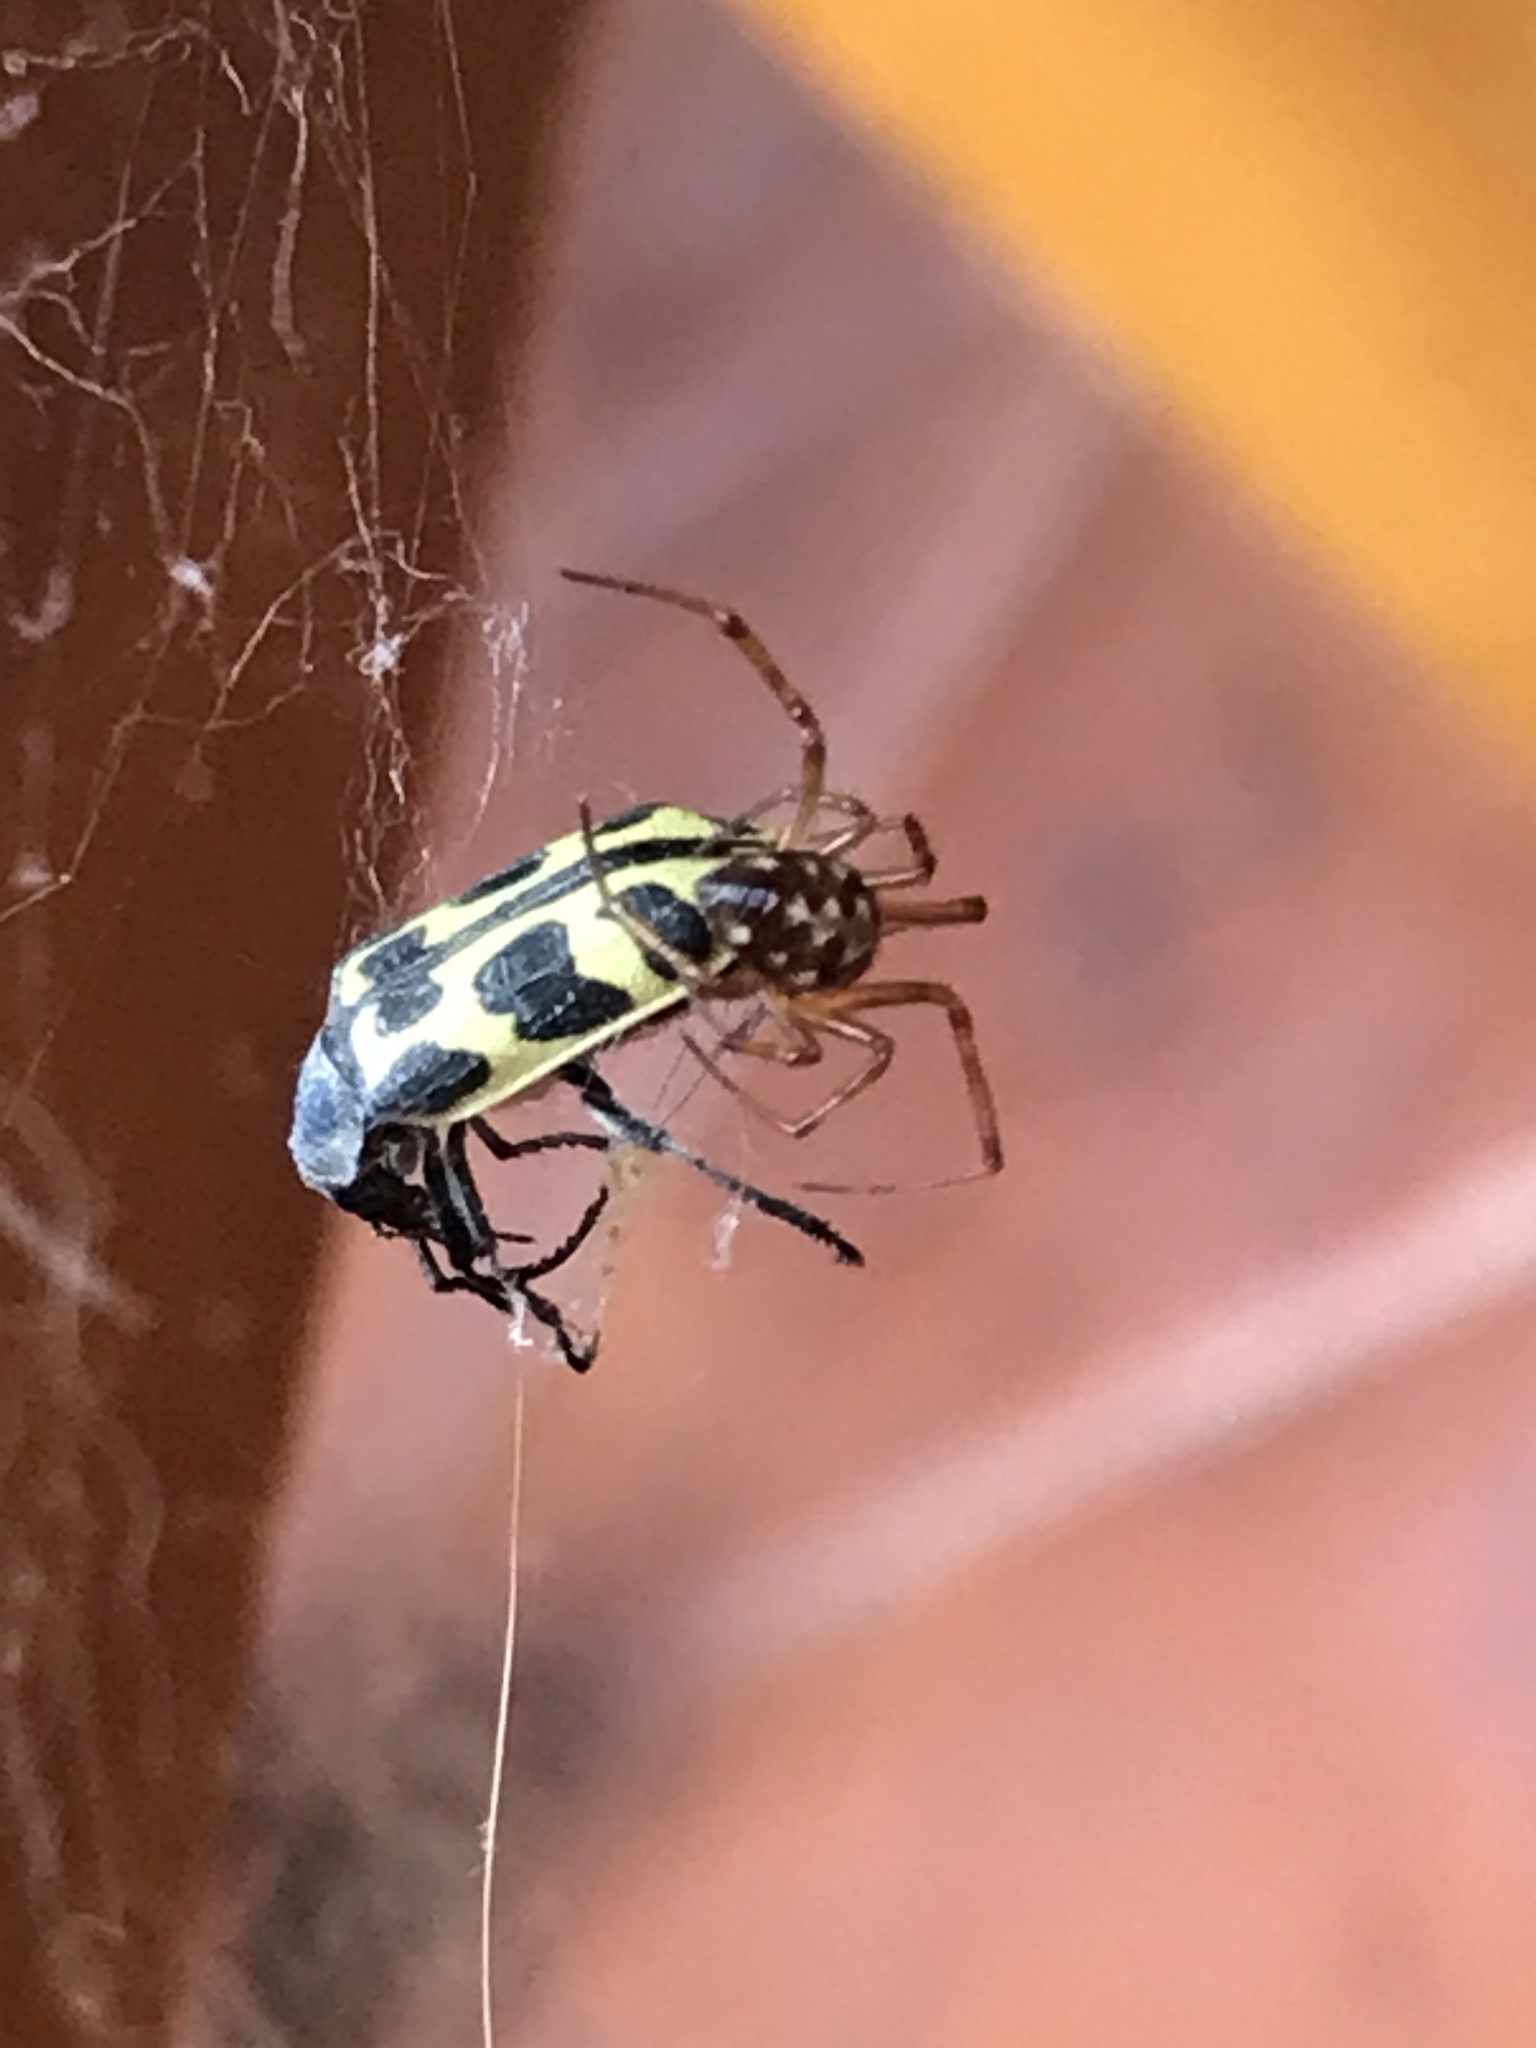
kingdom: Animalia
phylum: Arthropoda
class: Arachnida
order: Araneae
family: Theridiidae
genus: Steatoda
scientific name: Steatoda triangulosa
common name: Triangulate bud spider
